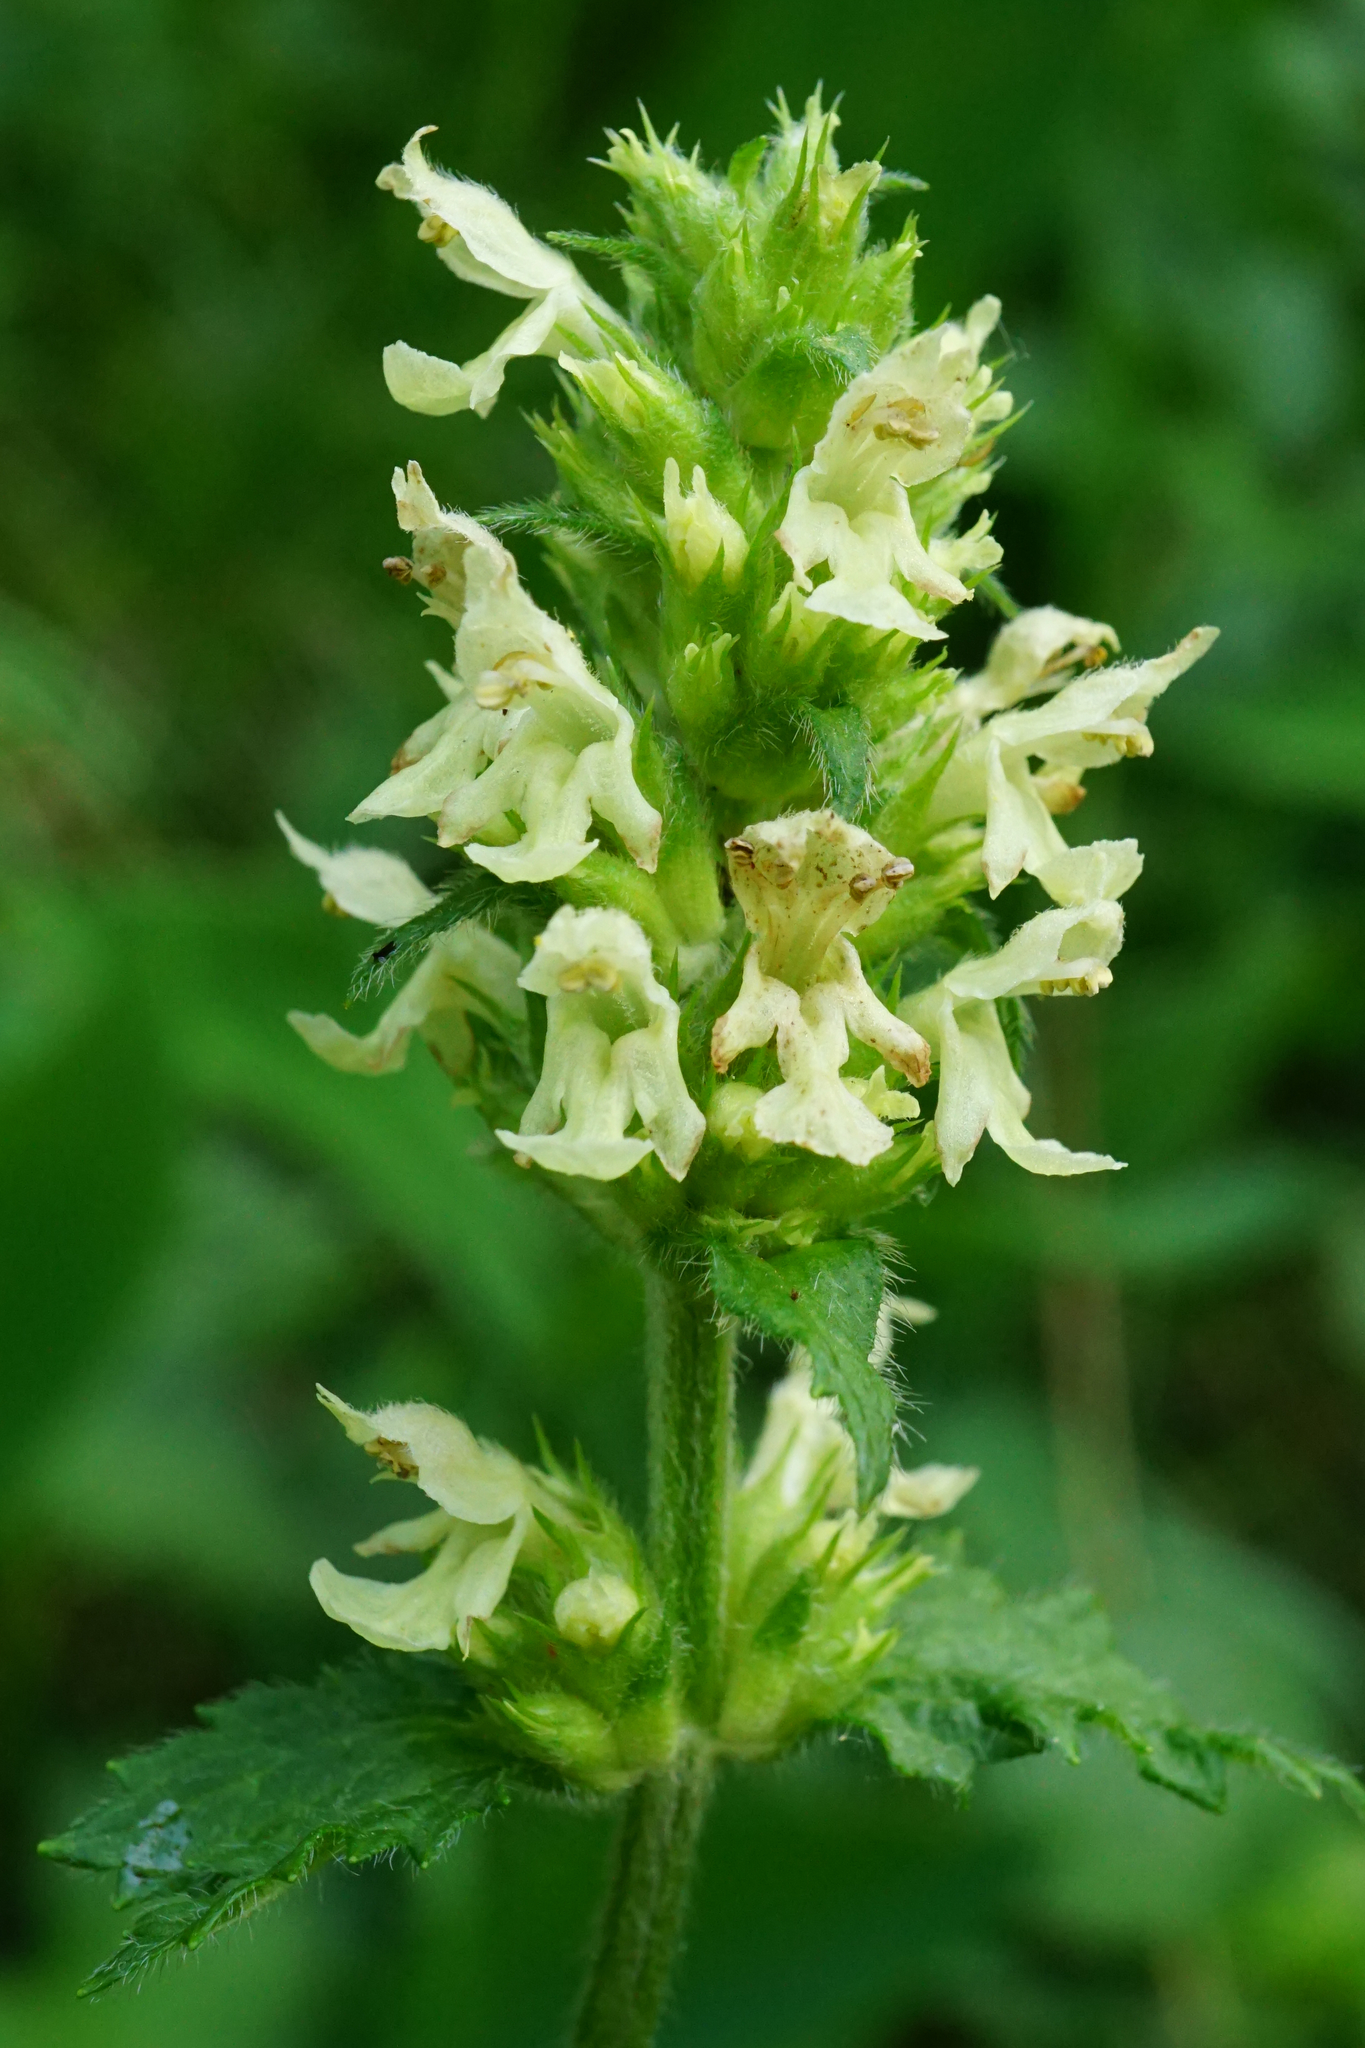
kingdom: Plantae
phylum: Tracheophyta
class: Magnoliopsida
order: Lamiales
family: Lamiaceae
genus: Betonica
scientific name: Betonica alopecuros
